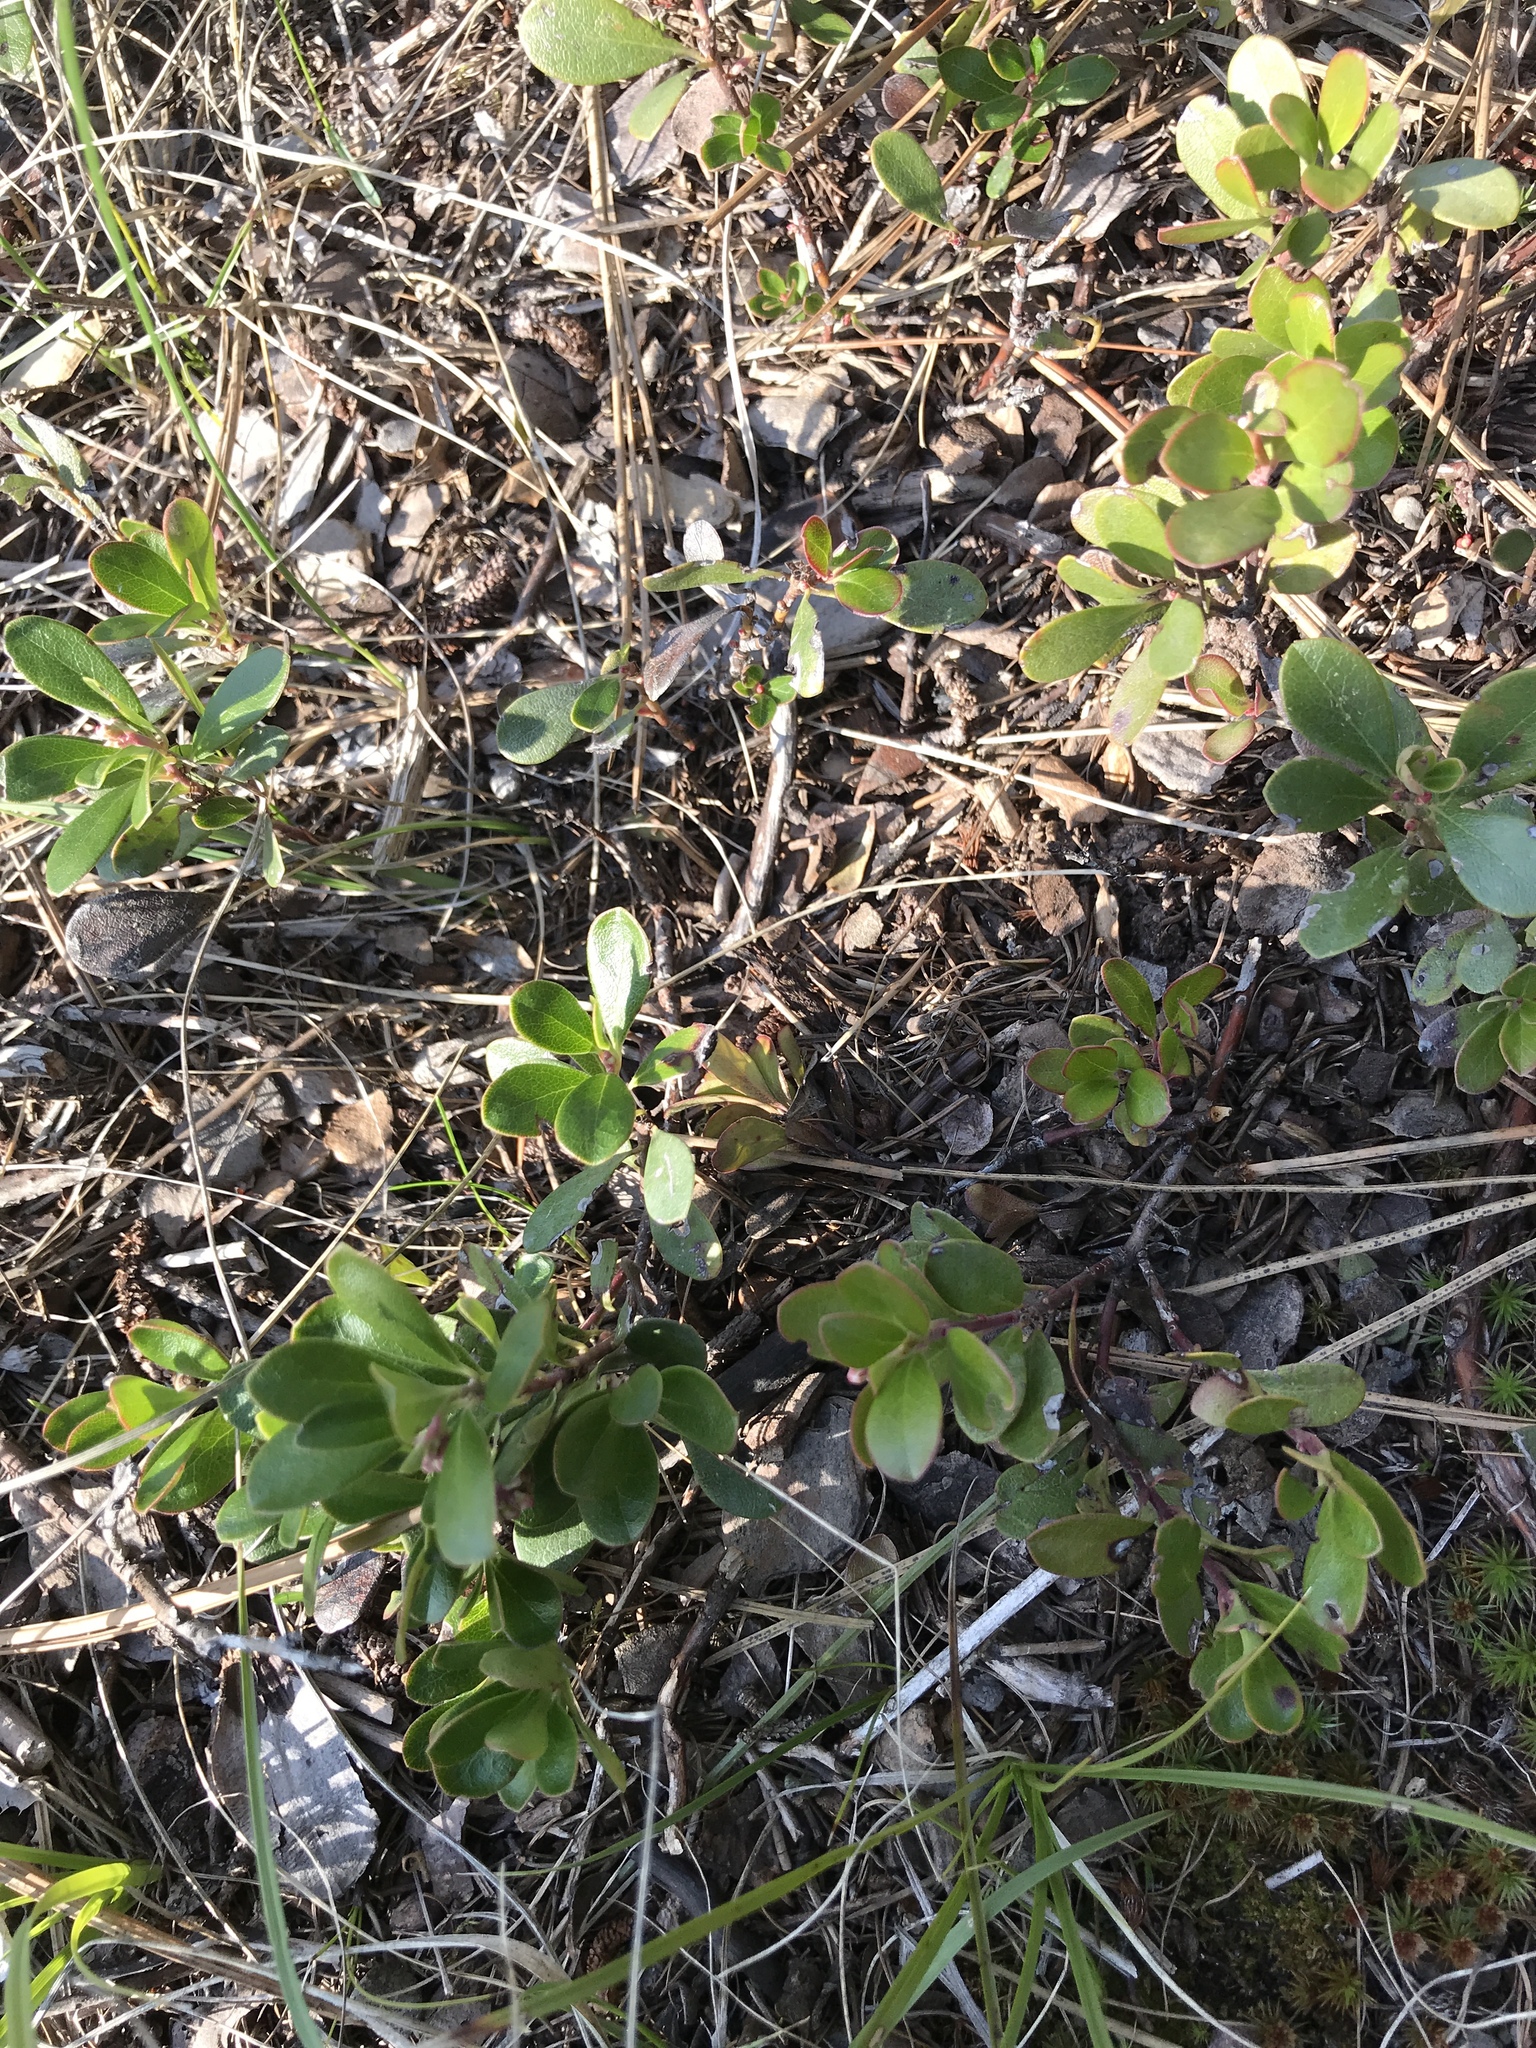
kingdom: Plantae
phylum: Tracheophyta
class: Magnoliopsida
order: Ericales
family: Ericaceae
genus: Arctostaphylos
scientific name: Arctostaphylos uva-ursi
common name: Bearberry
